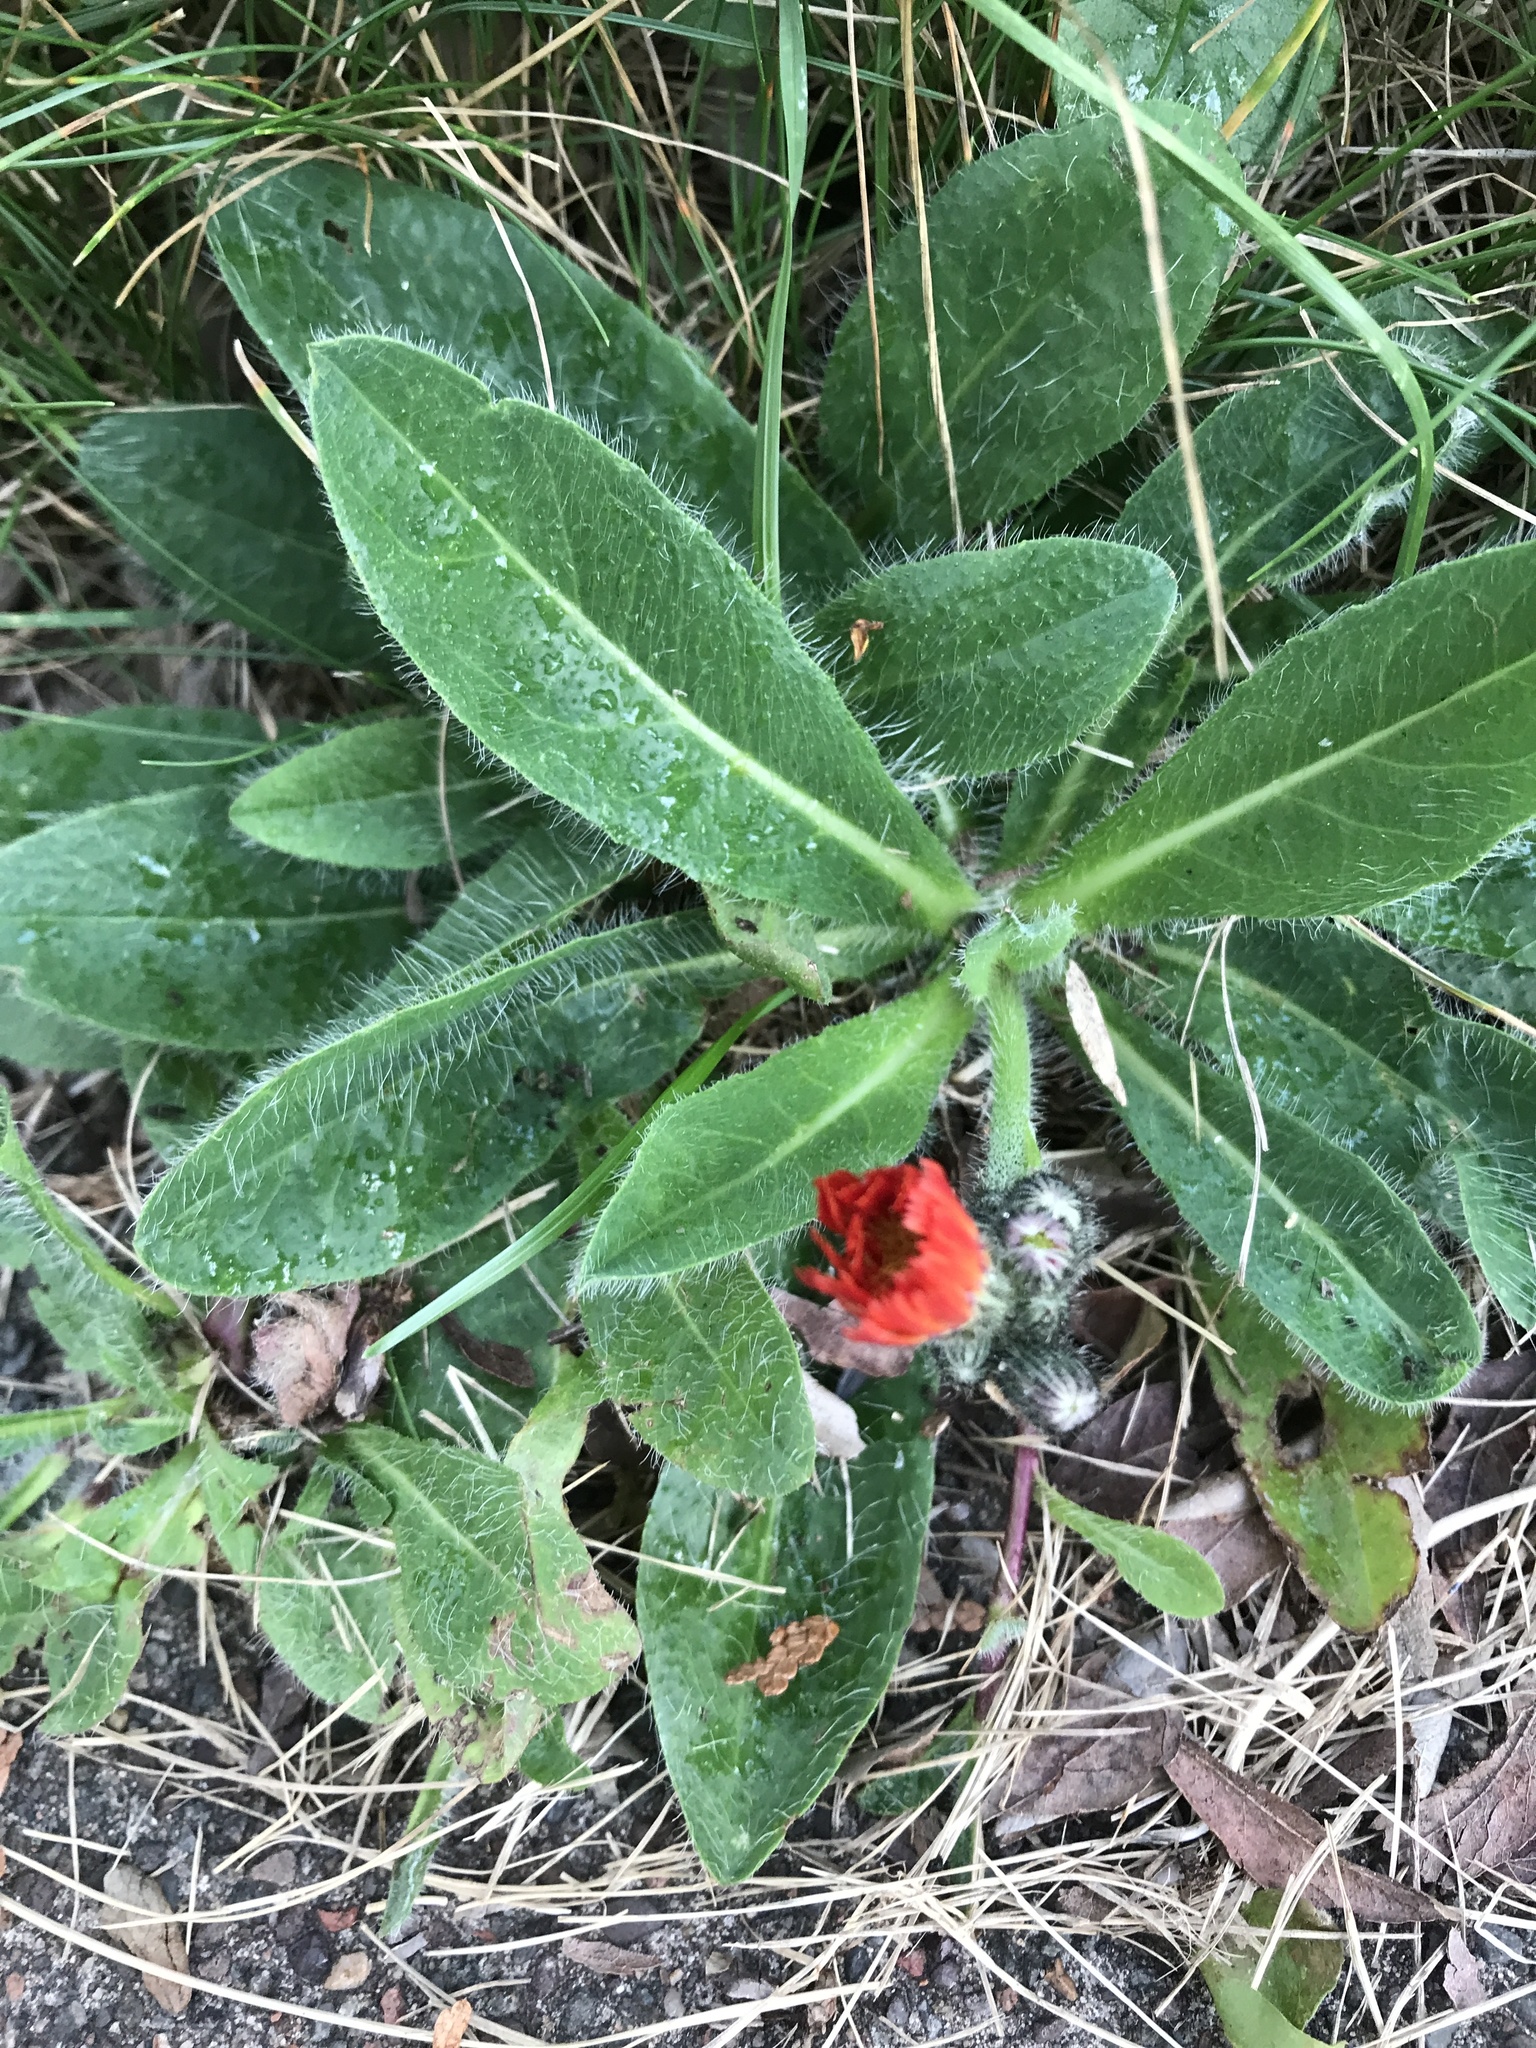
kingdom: Plantae
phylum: Tracheophyta
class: Magnoliopsida
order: Asterales
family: Asteraceae
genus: Pilosella
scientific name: Pilosella aurantiaca
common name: Fox-and-cubs
